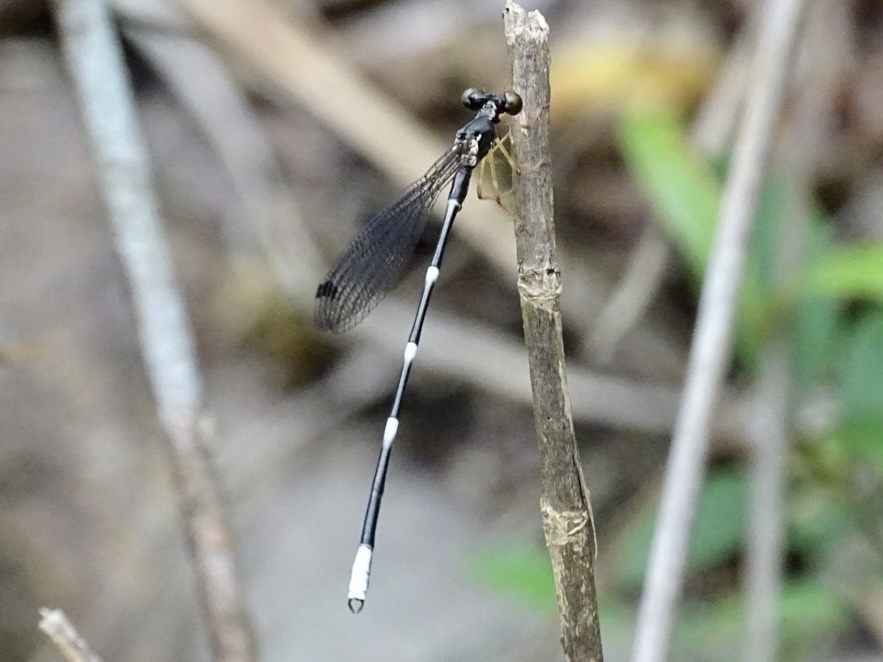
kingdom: Animalia
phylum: Arthropoda
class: Insecta
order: Odonata
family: Thaumatoneuridae
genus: Agriomorpha
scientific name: Agriomorpha fusca
